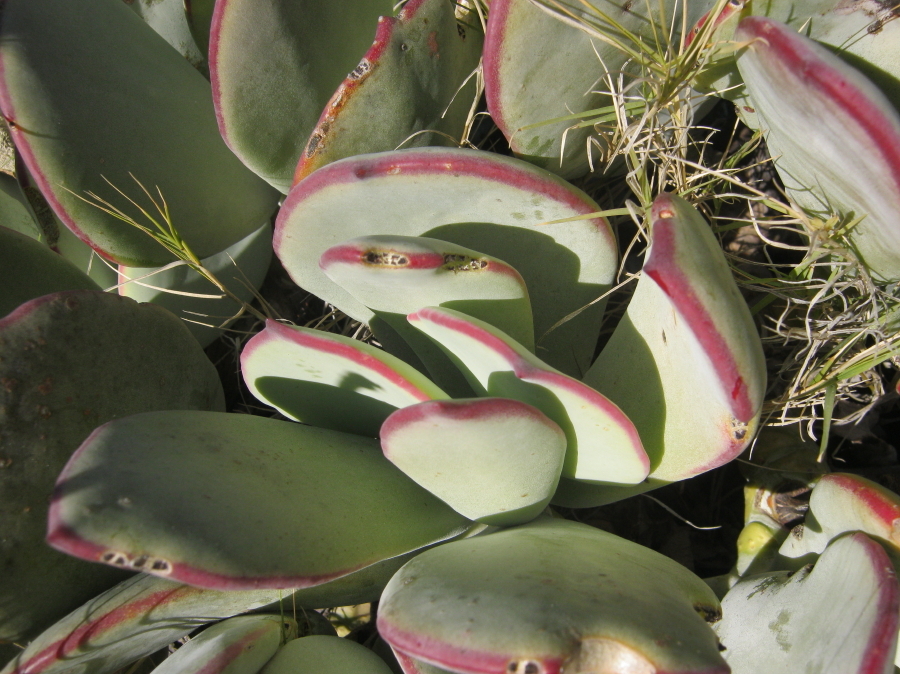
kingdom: Plantae
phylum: Tracheophyta
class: Magnoliopsida
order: Saxifragales
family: Crassulaceae
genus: Cotyledon
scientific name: Cotyledon orbiculata
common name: Pig's ear
